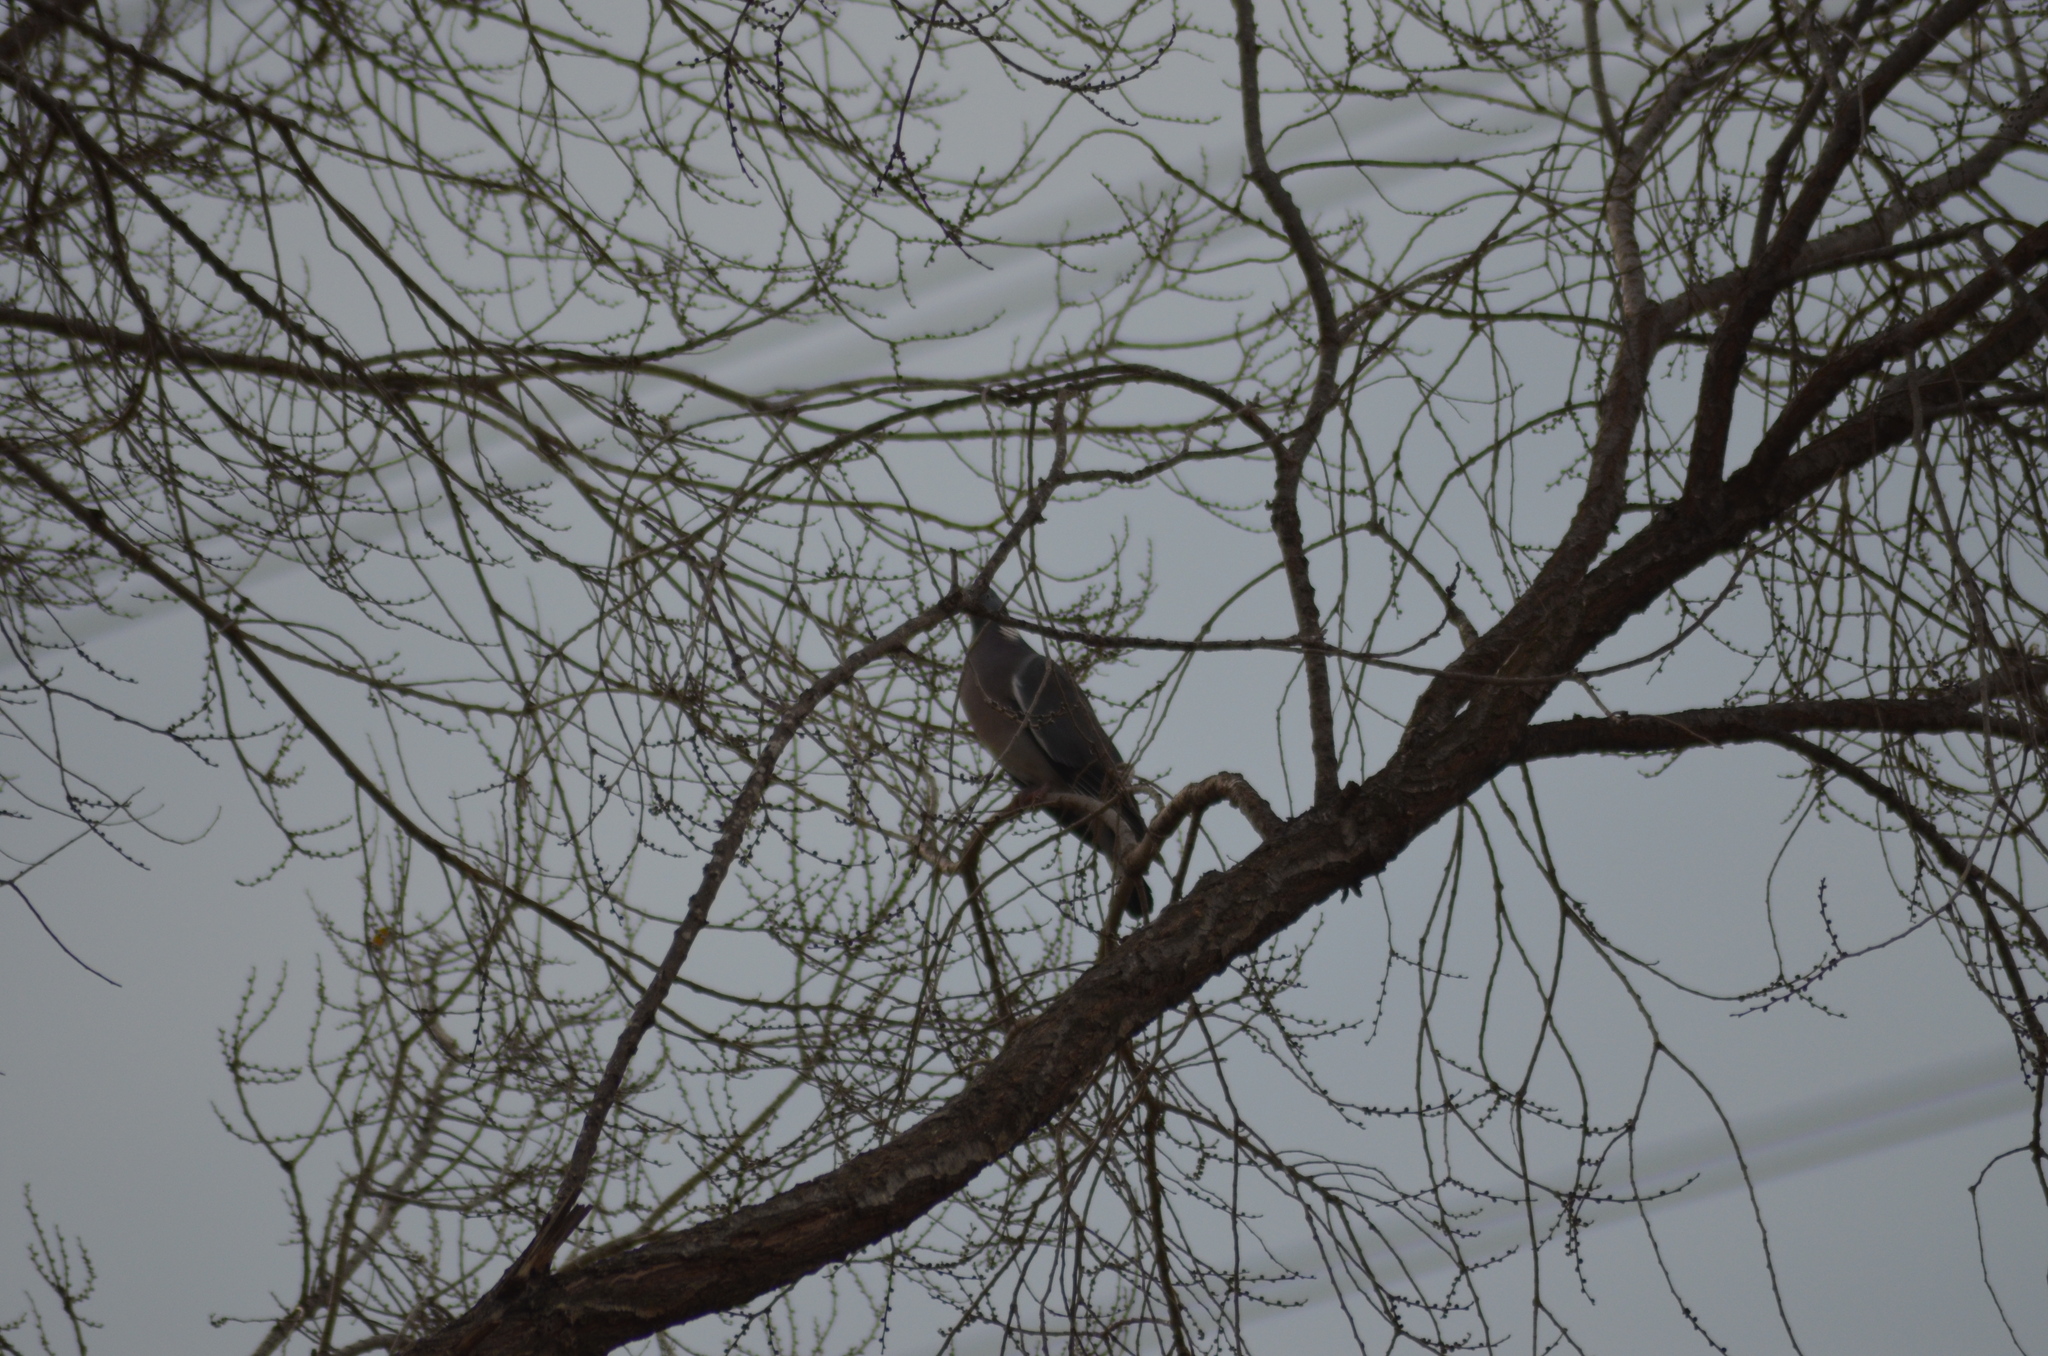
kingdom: Animalia
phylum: Chordata
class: Aves
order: Columbiformes
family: Columbidae
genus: Columba
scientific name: Columba palumbus
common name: Common wood pigeon
